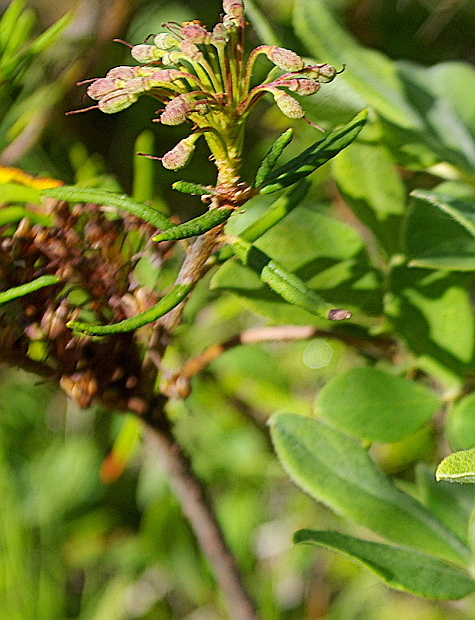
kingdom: Plantae
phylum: Tracheophyta
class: Magnoliopsida
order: Ericales
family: Ericaceae
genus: Rhododendron
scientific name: Rhododendron tomentosum
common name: Marsh labrador tea
